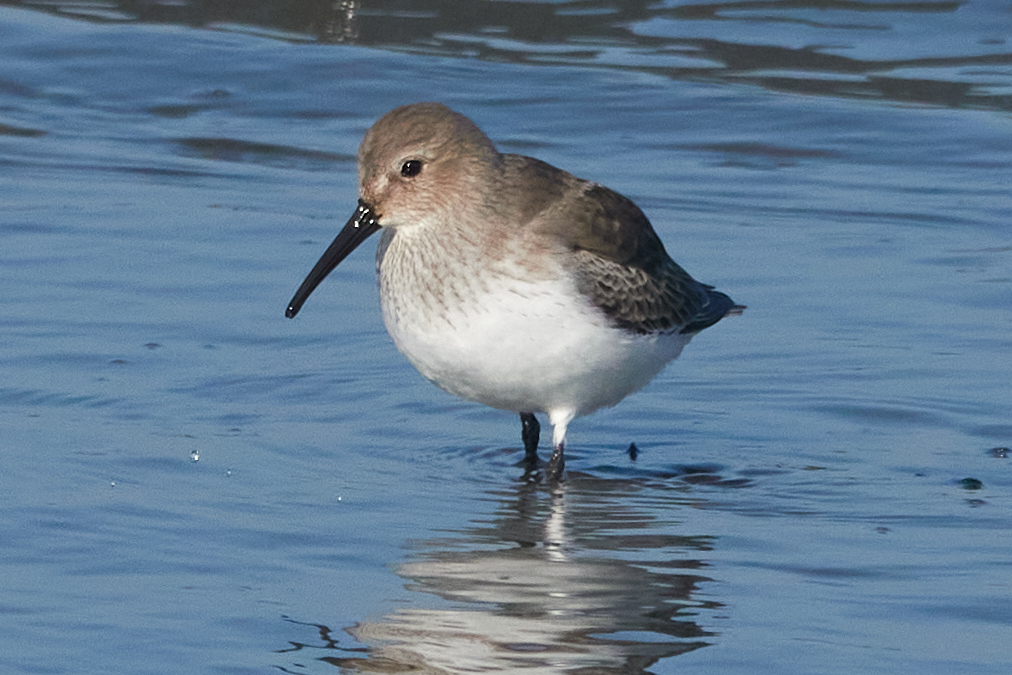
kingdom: Animalia
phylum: Chordata
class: Aves
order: Charadriiformes
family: Scolopacidae
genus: Calidris
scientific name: Calidris alpina
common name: Dunlin
